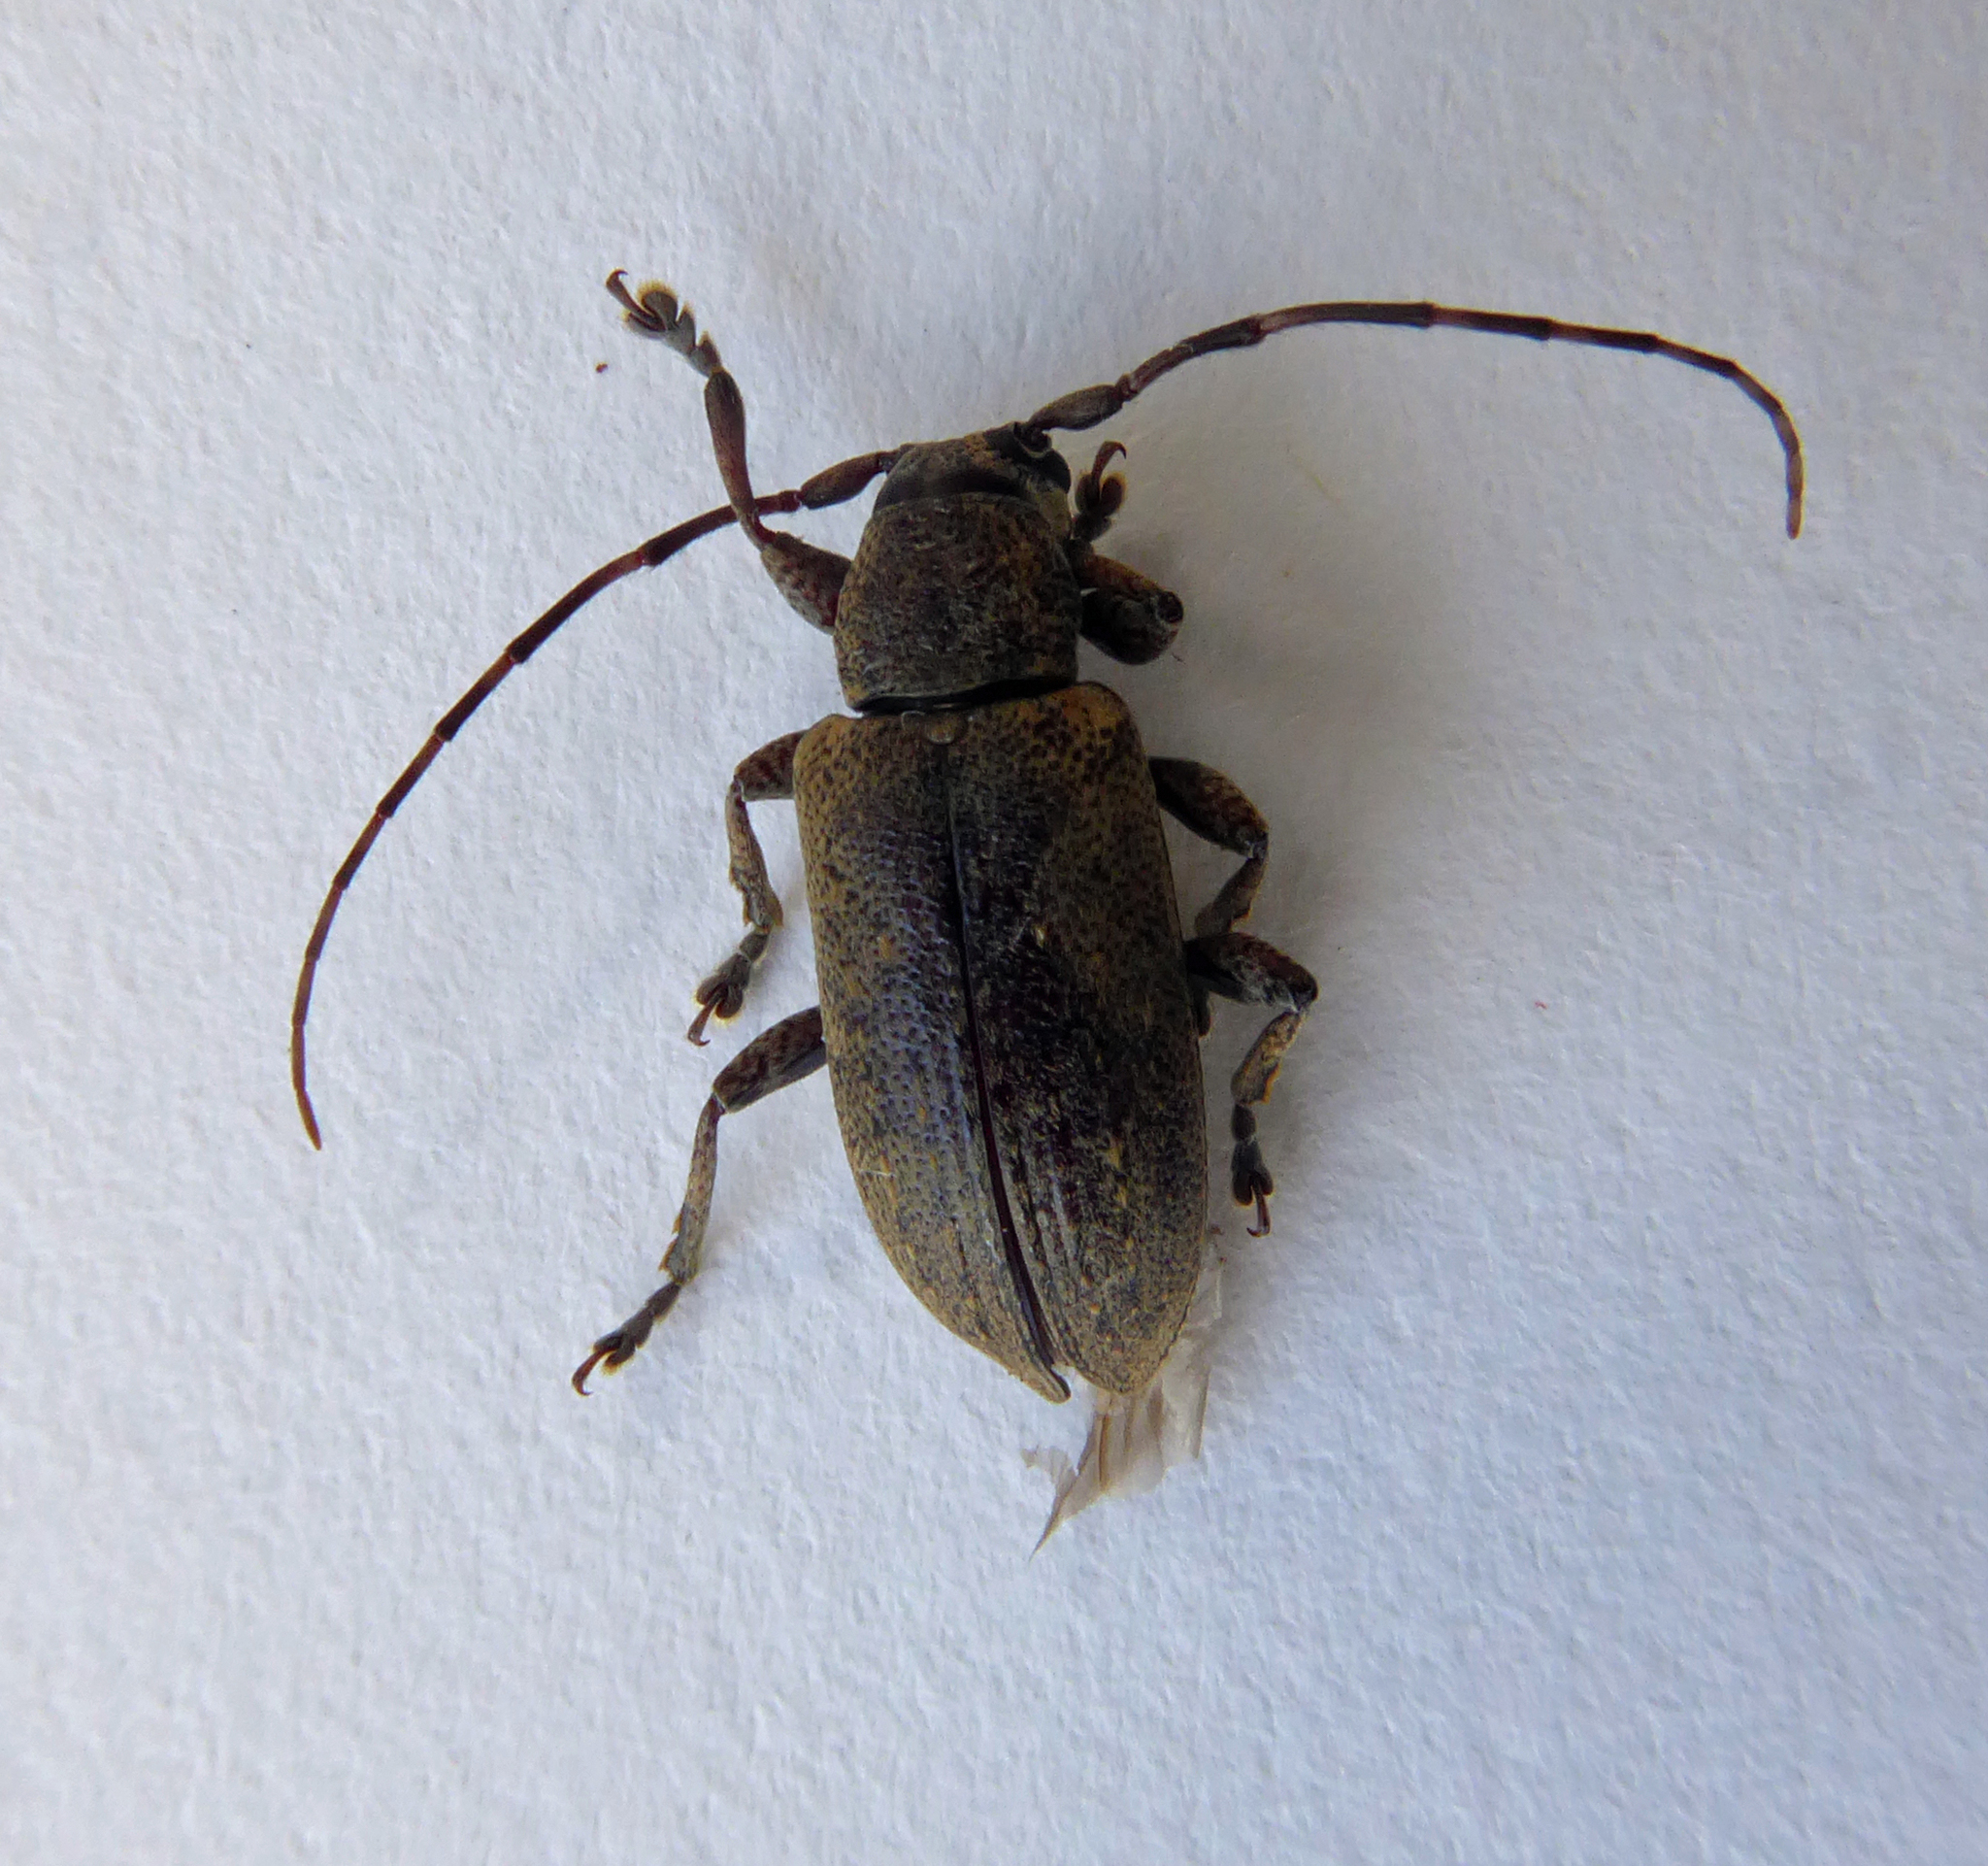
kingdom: Animalia
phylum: Arthropoda
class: Insecta
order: Coleoptera
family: Cerambycidae
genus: Oopsis
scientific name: Oopsis oblongipennis
